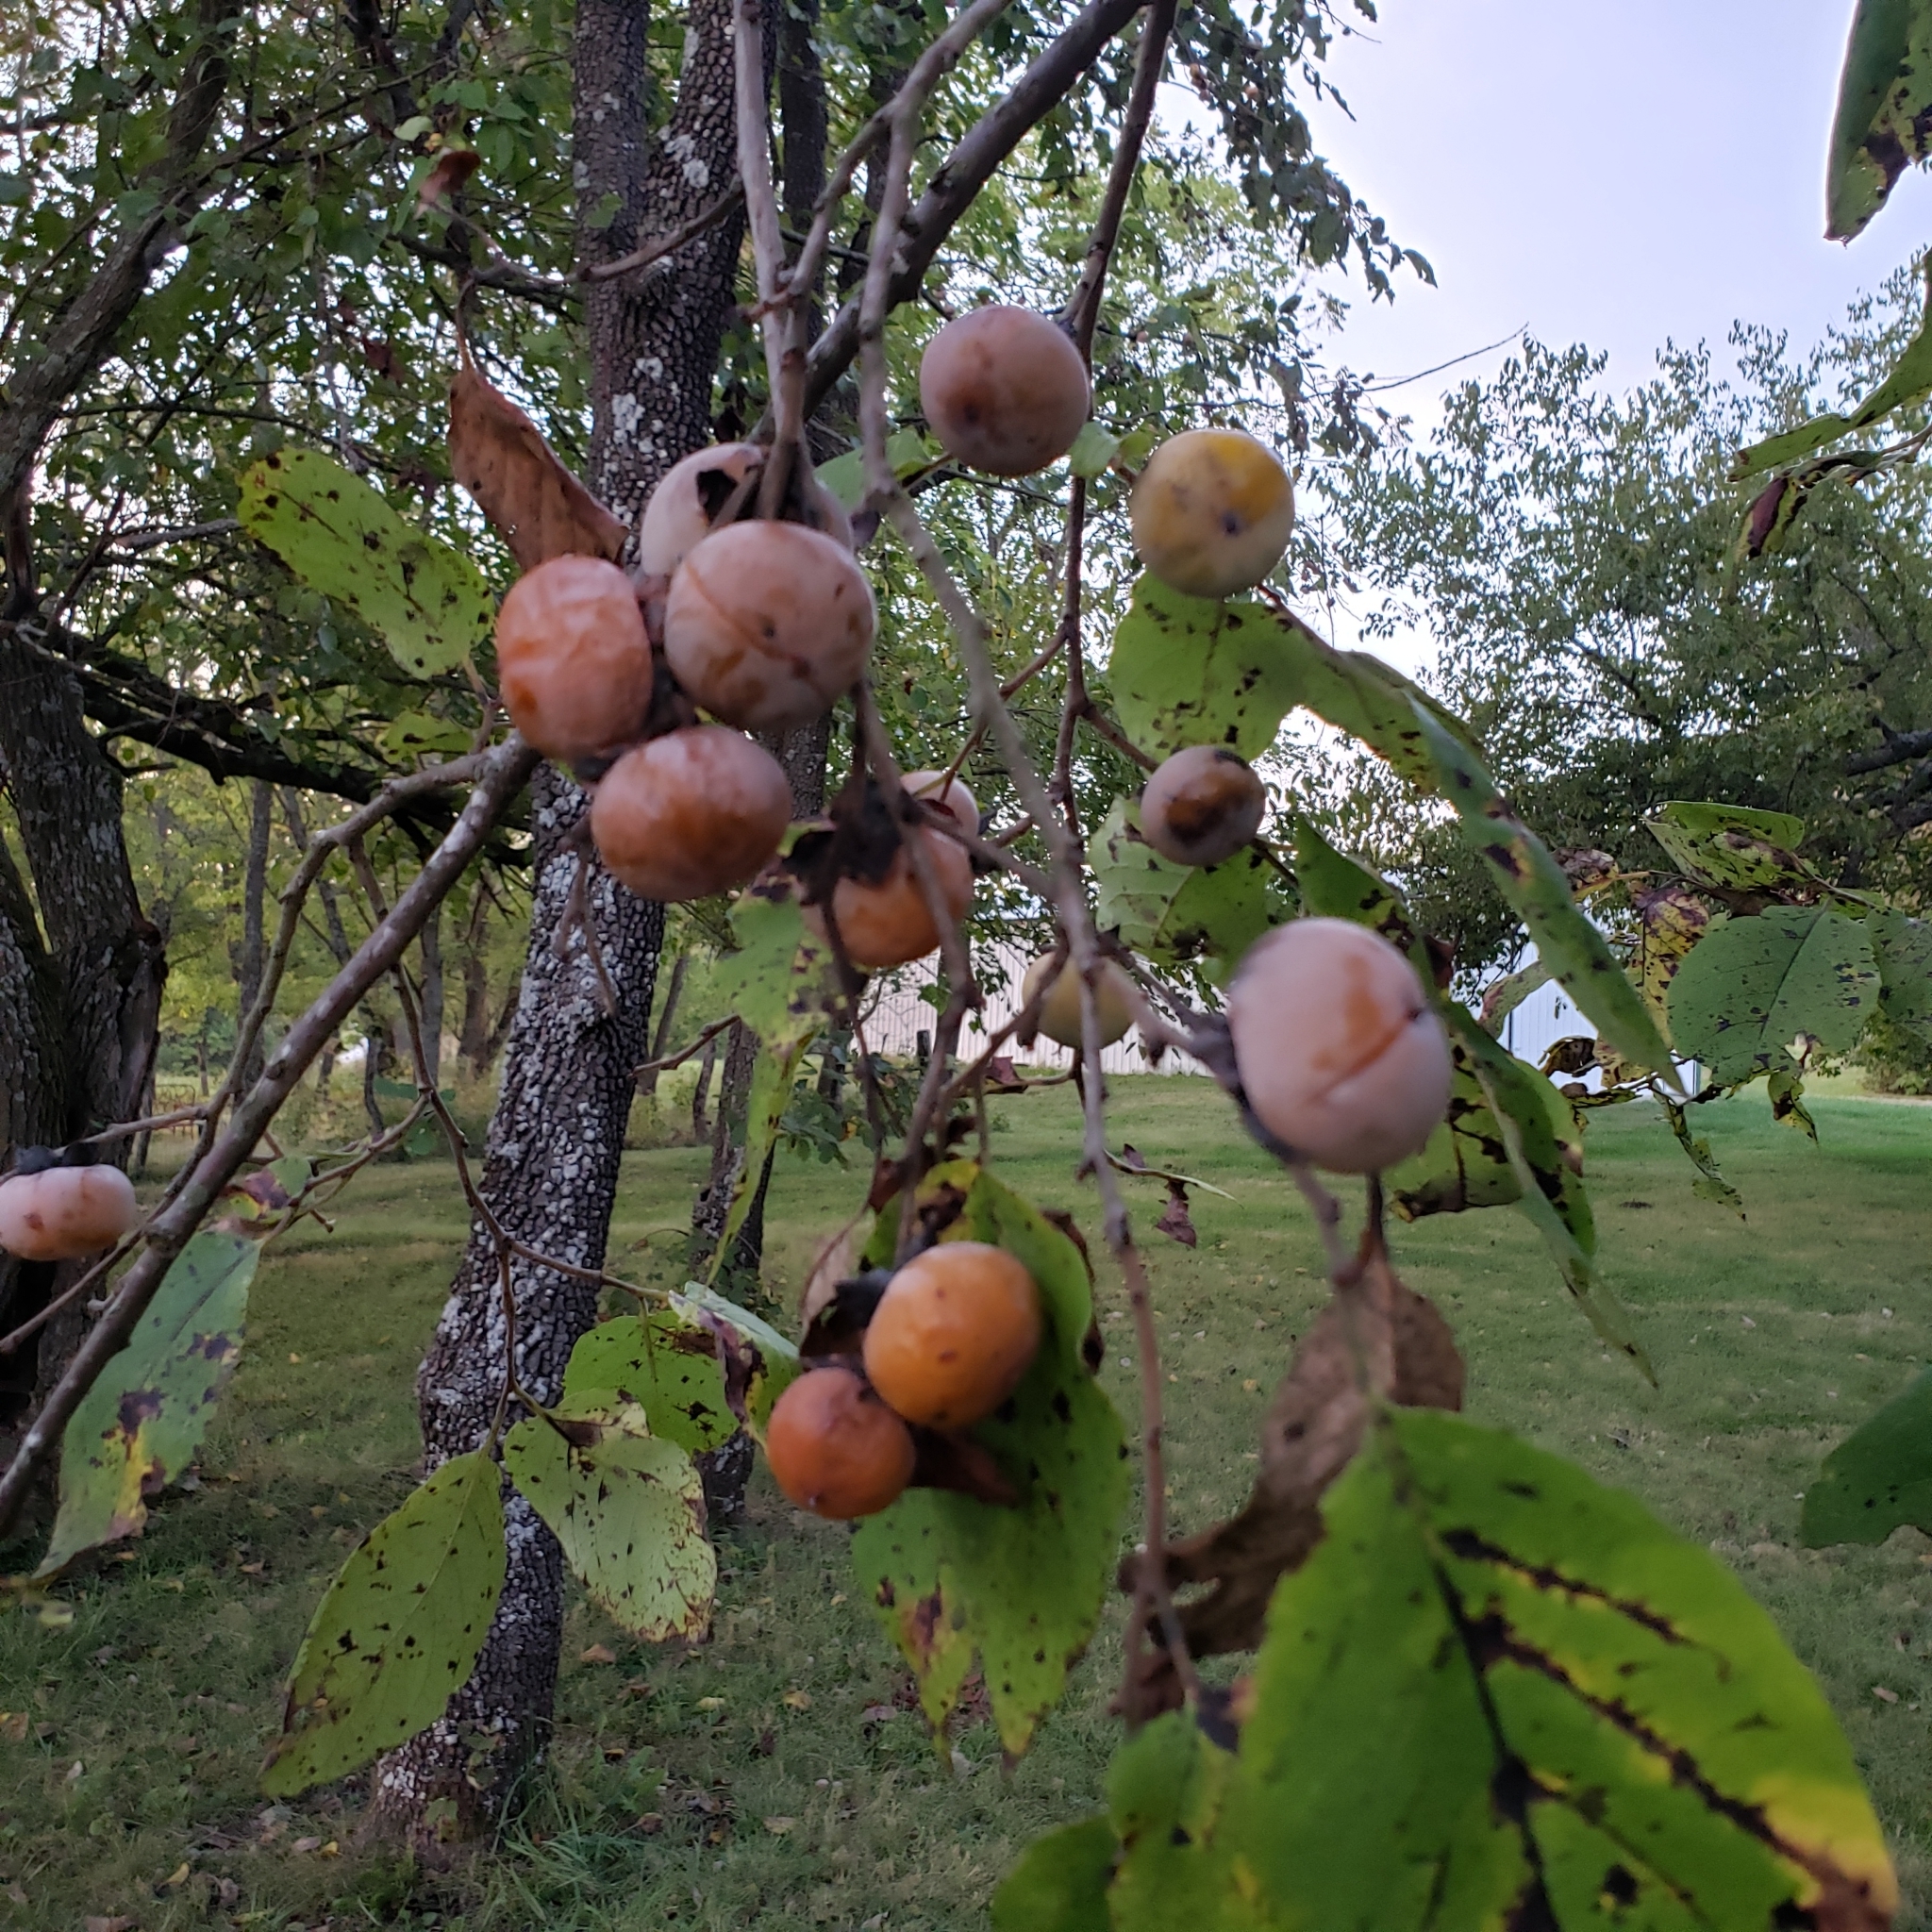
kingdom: Plantae
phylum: Tracheophyta
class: Magnoliopsida
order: Ericales
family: Ebenaceae
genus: Diospyros
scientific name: Diospyros virginiana
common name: Persimmon
